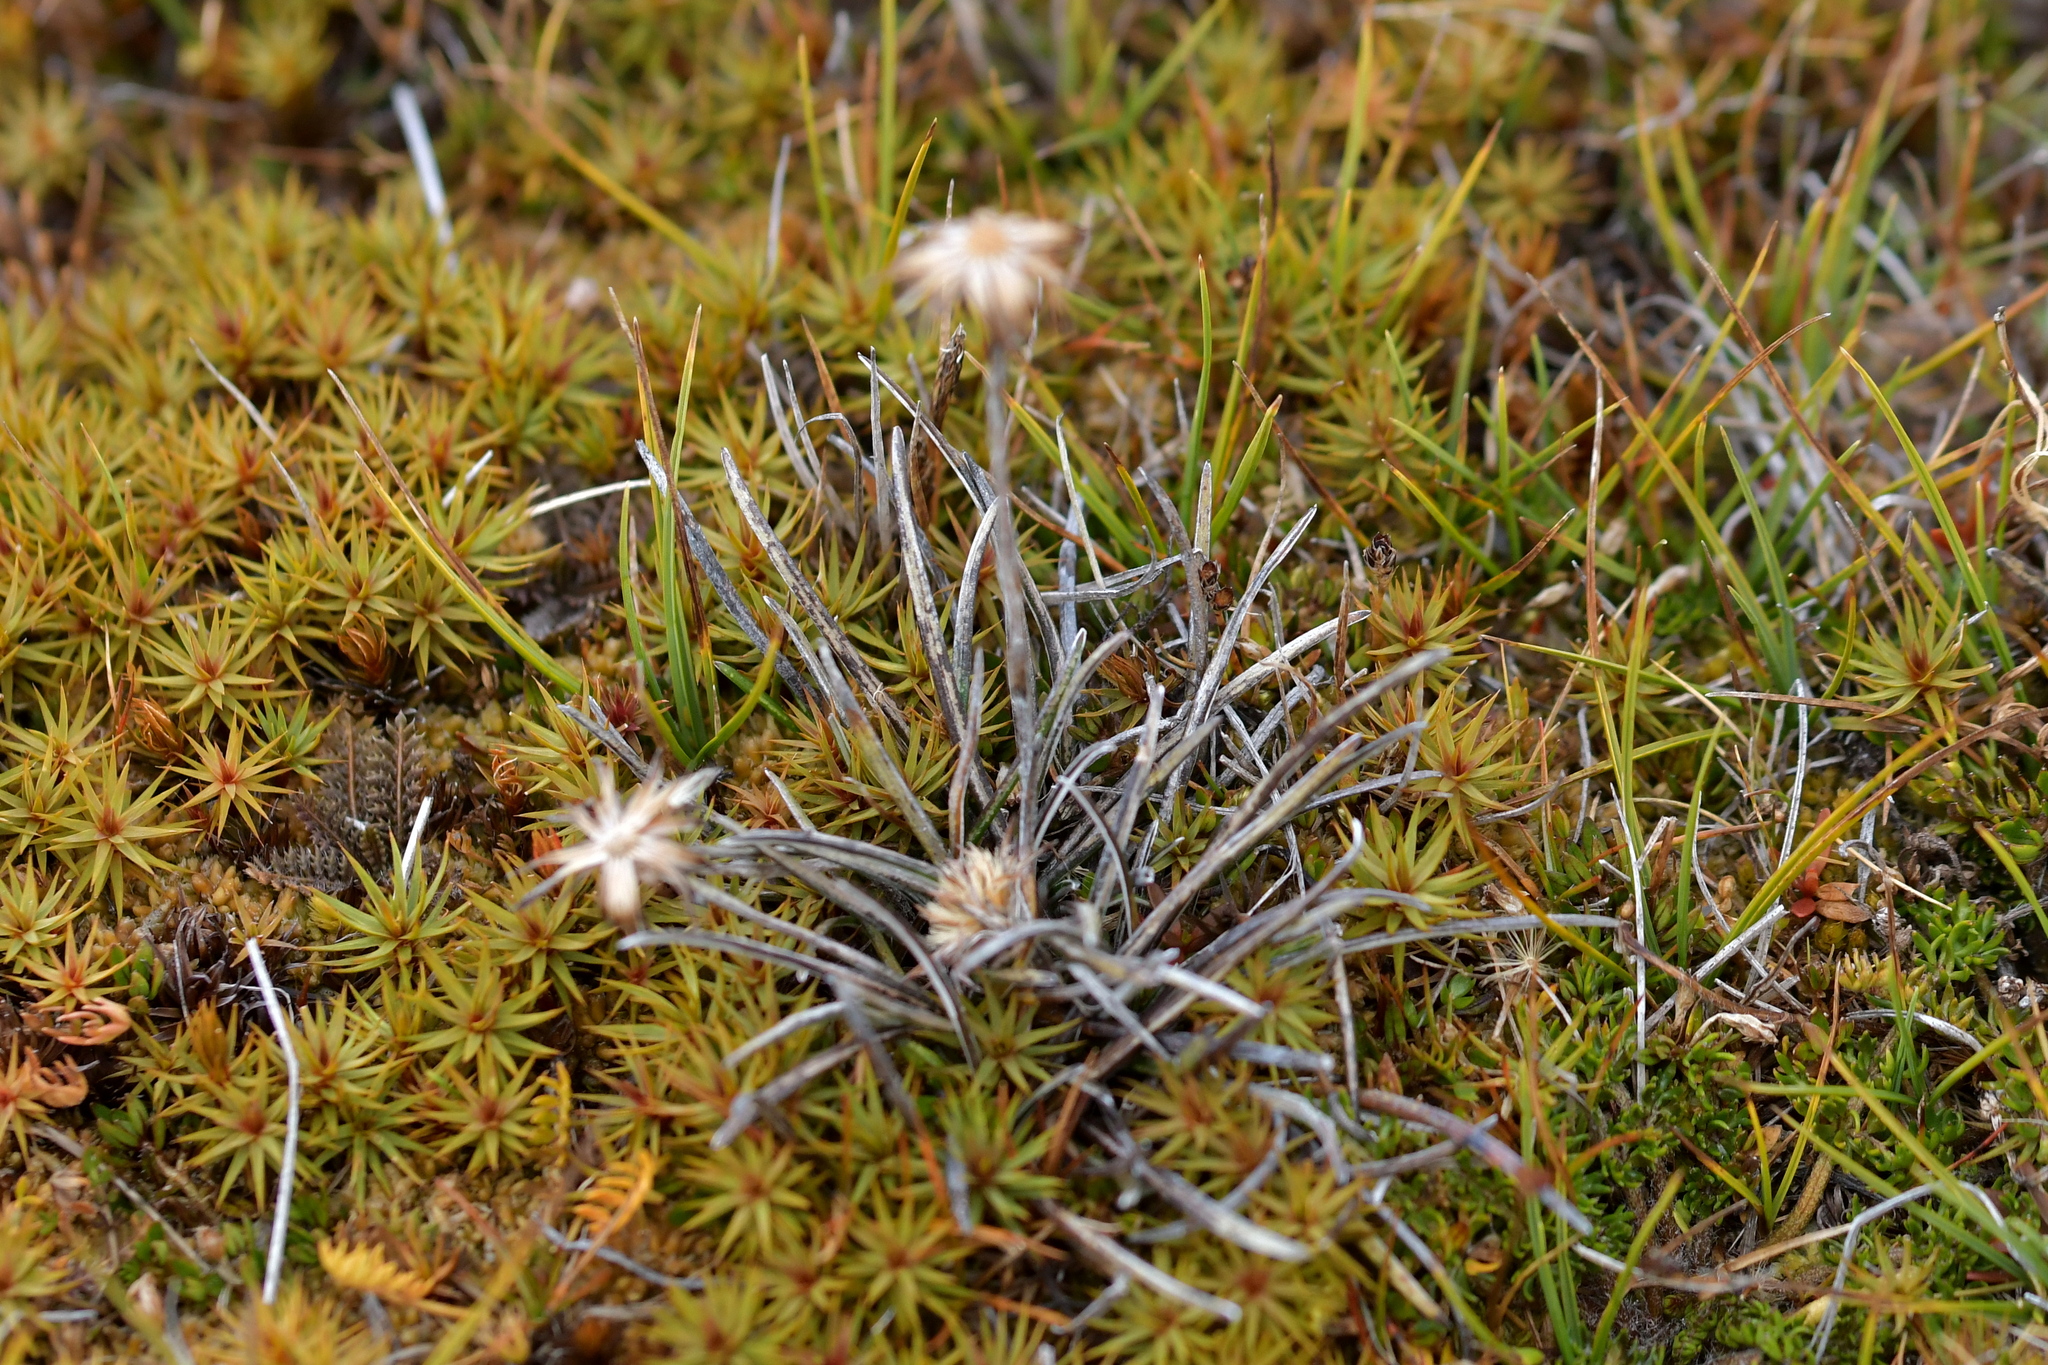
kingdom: Plantae
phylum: Tracheophyta
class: Magnoliopsida
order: Asterales
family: Asteraceae
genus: Celmisia
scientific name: Celmisia alpina
